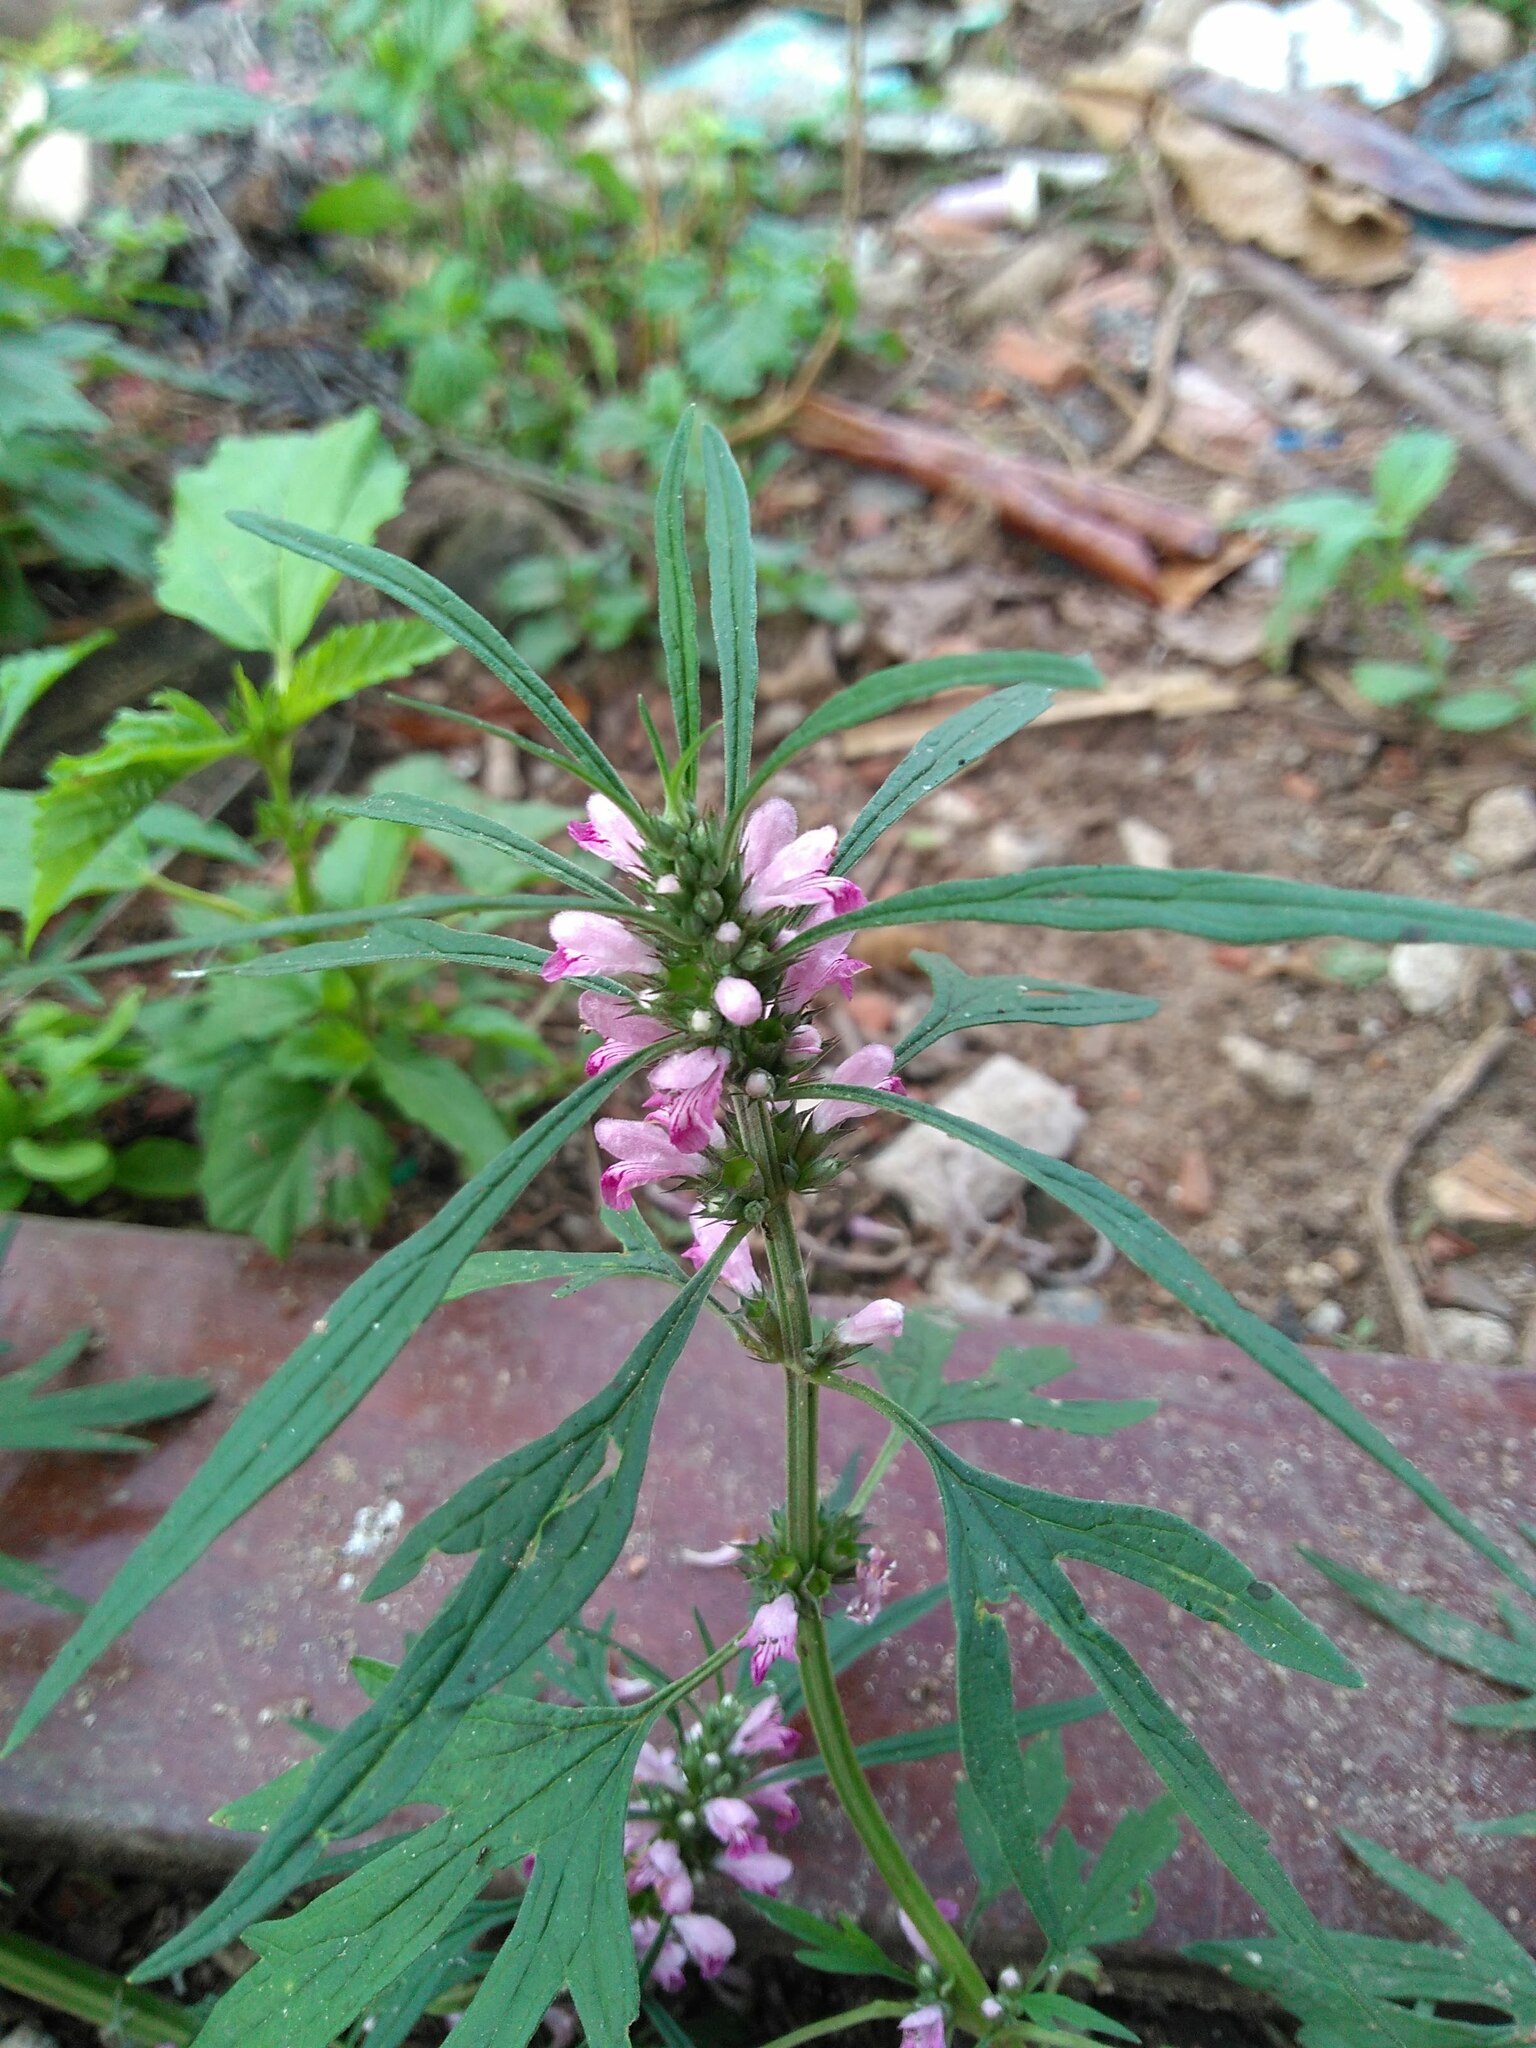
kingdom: Plantae
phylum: Tracheophyta
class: Magnoliopsida
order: Lamiales
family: Lamiaceae
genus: Leonurus
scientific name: Leonurus japonicus
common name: Honeyweed
